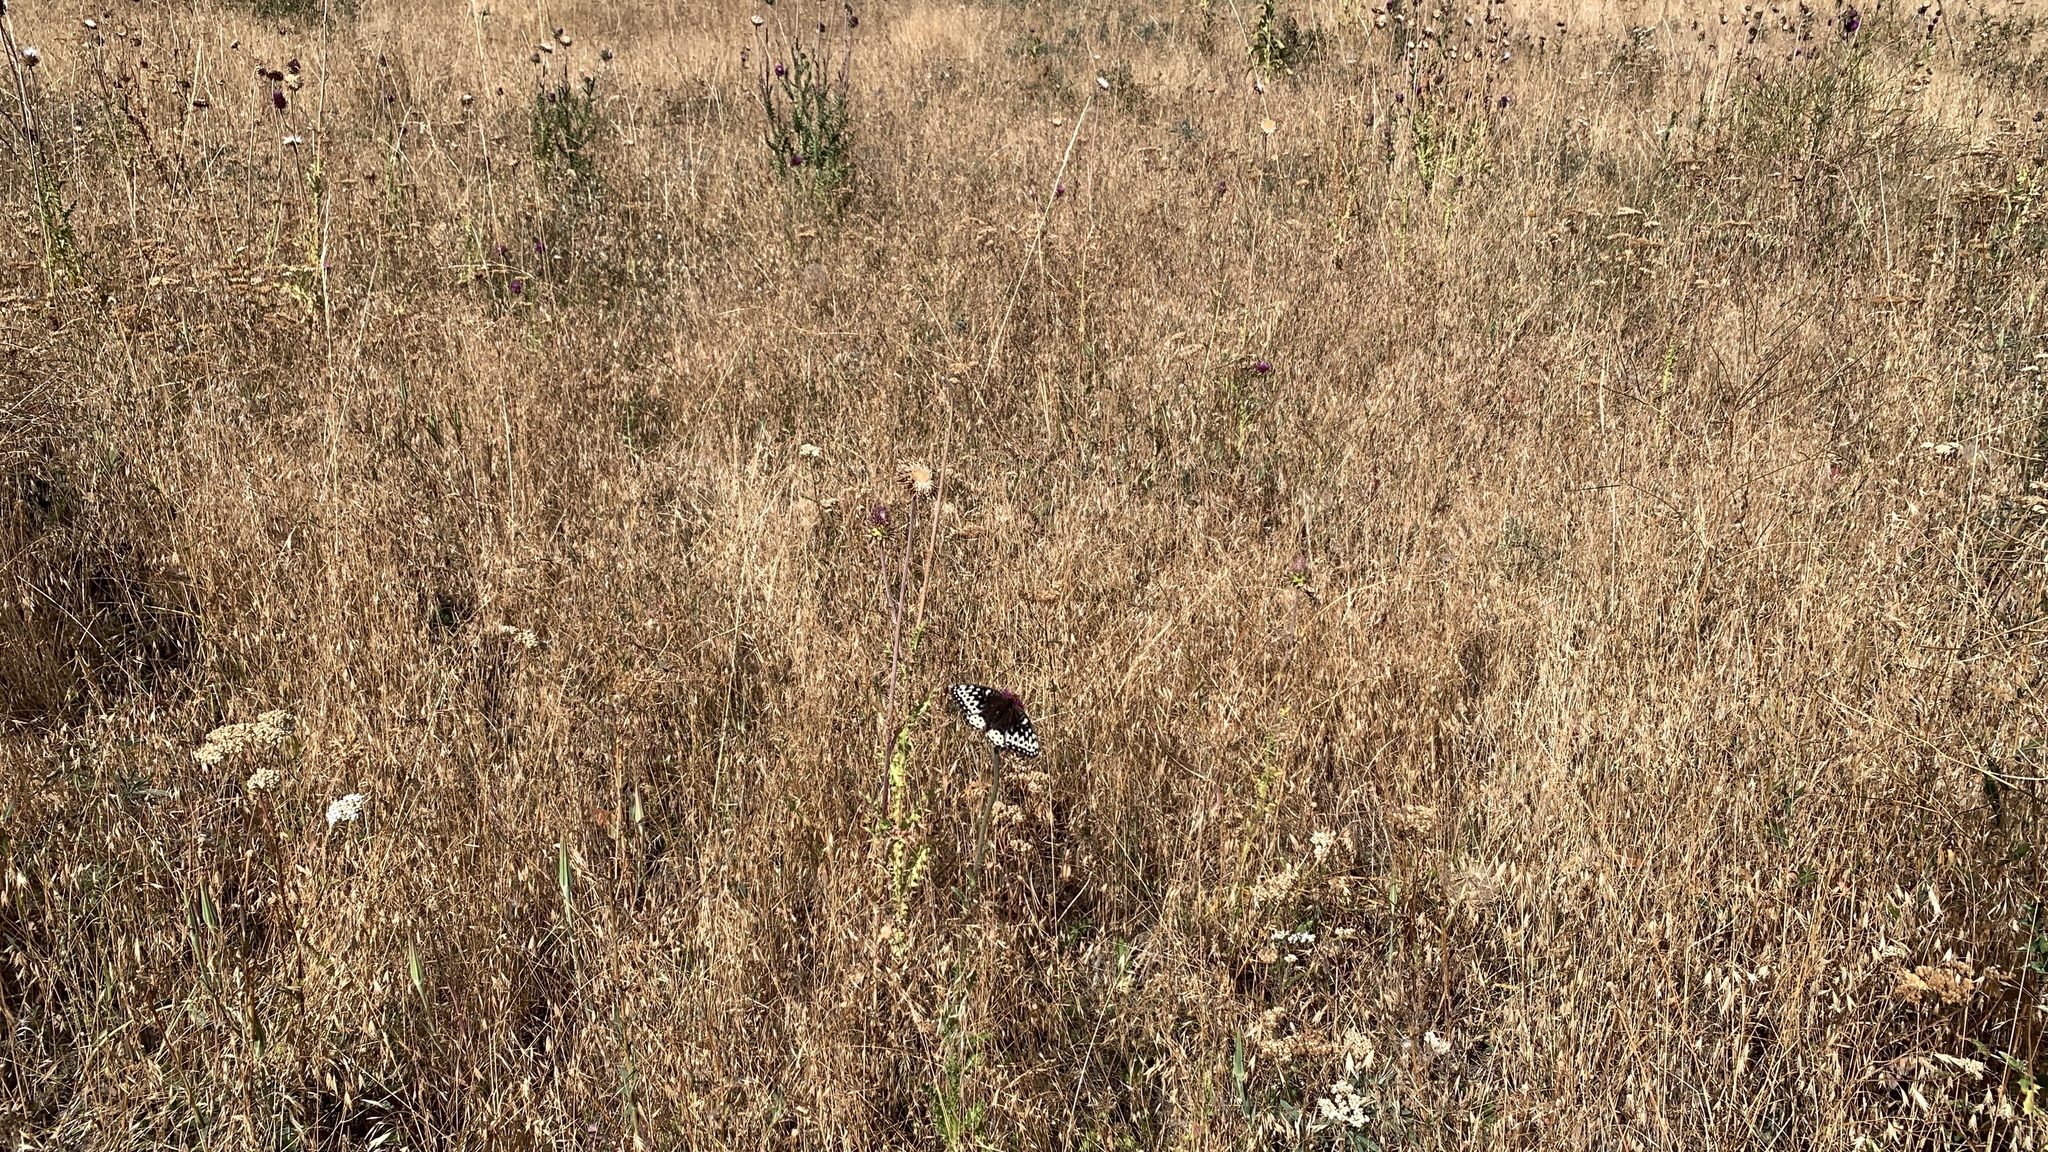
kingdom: Animalia
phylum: Arthropoda
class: Insecta
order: Lepidoptera
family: Nymphalidae
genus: Speyeria
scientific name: Speyeria cybele
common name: Great spangled fritillary
